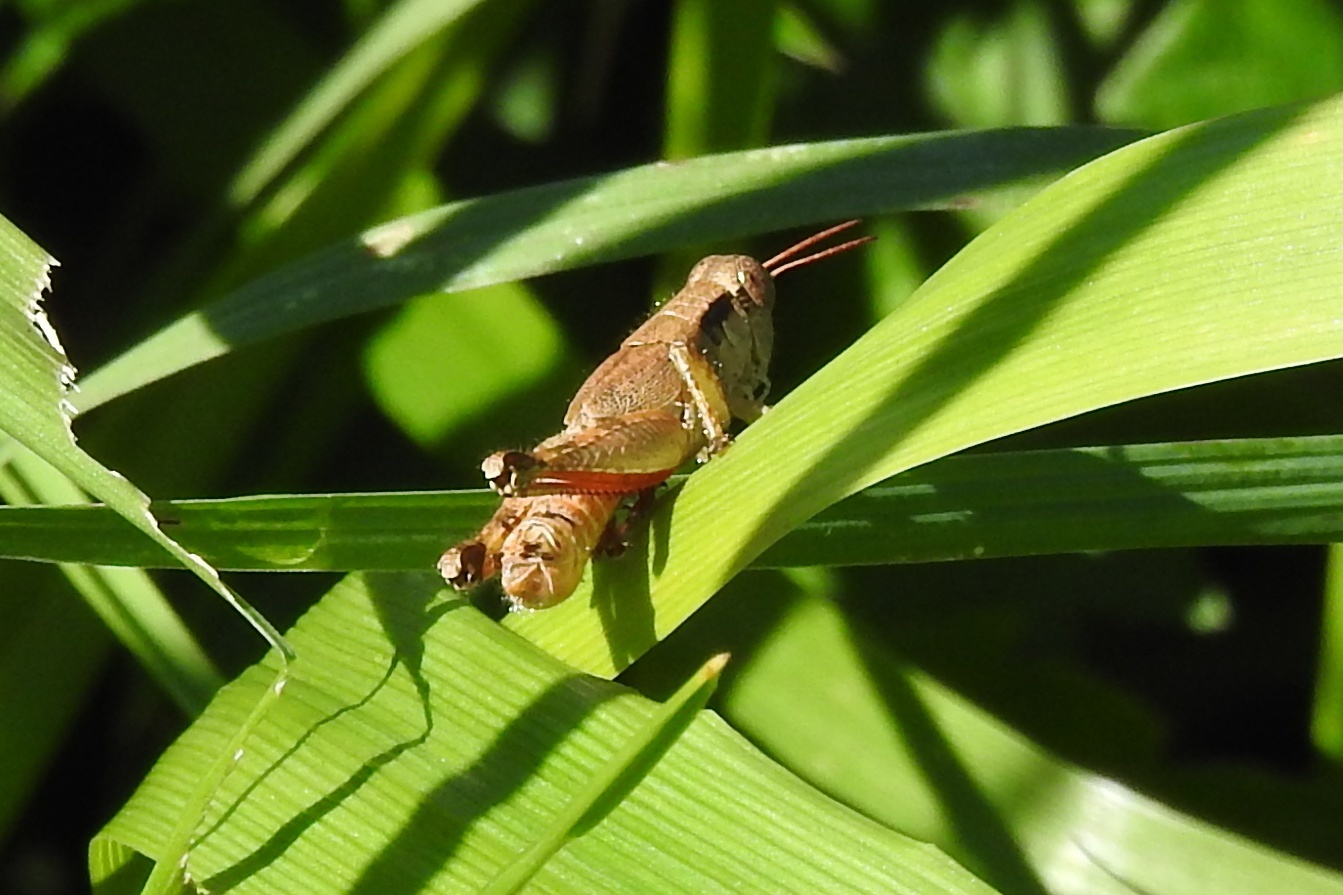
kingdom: Animalia
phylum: Arthropoda
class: Insecta
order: Orthoptera
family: Acrididae
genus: Melanoplus
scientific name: Melanoplus scudderi
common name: Scudder's short-winged locust
